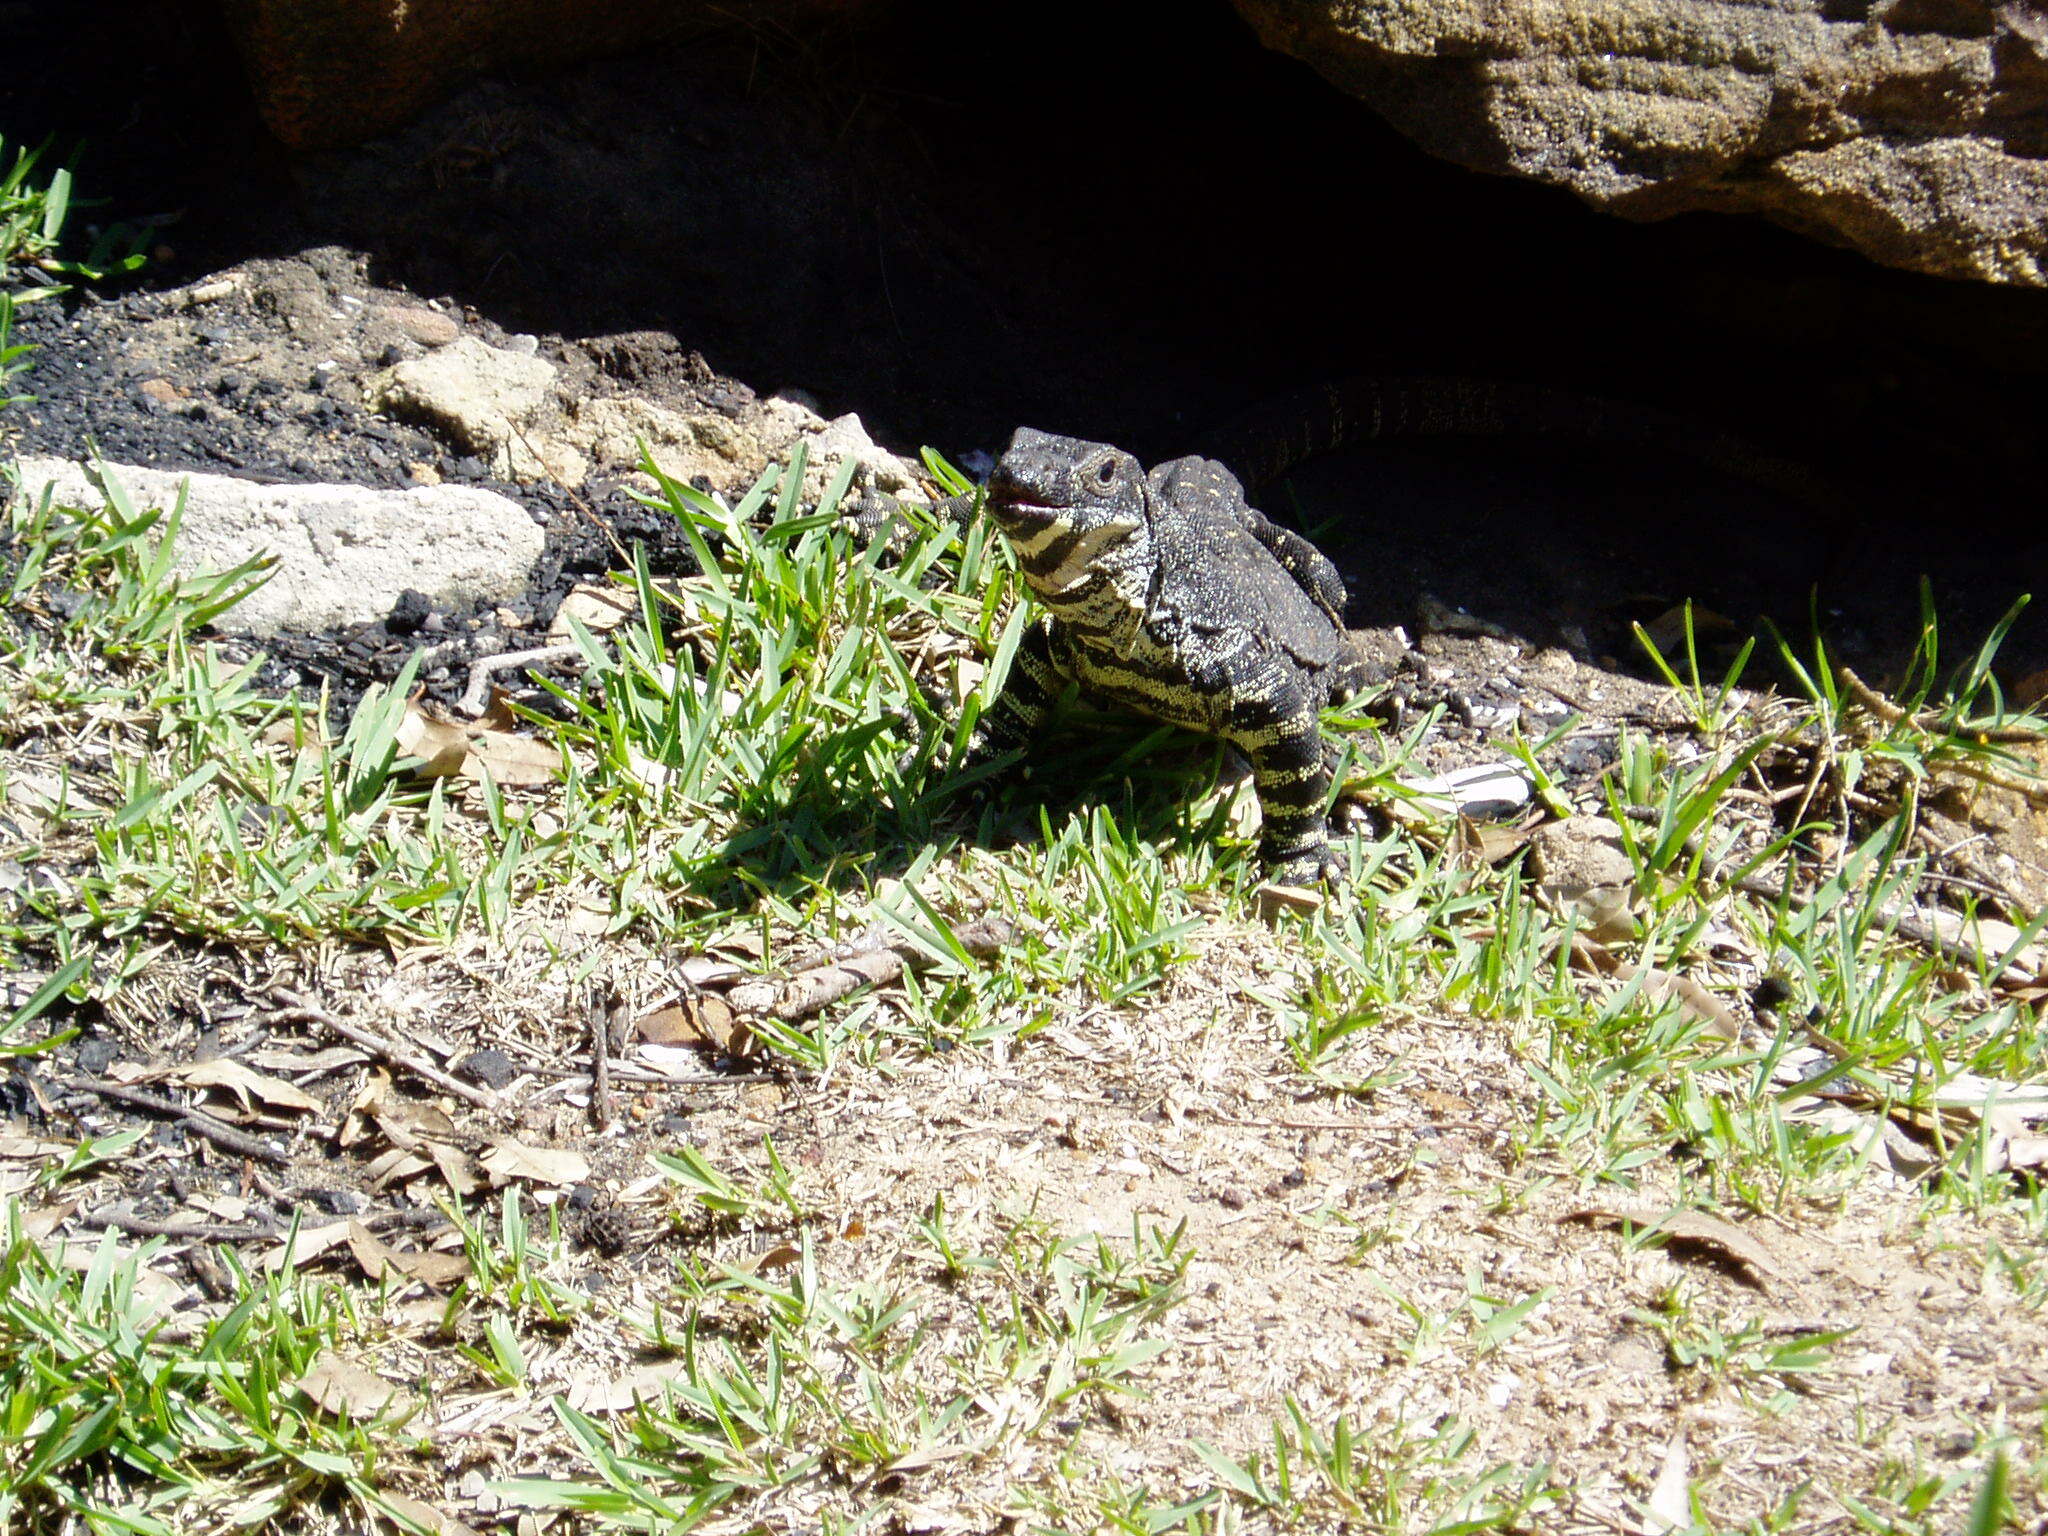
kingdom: Animalia
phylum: Chordata
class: Squamata
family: Varanidae
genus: Varanus
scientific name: Varanus varius
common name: Lace monitor
